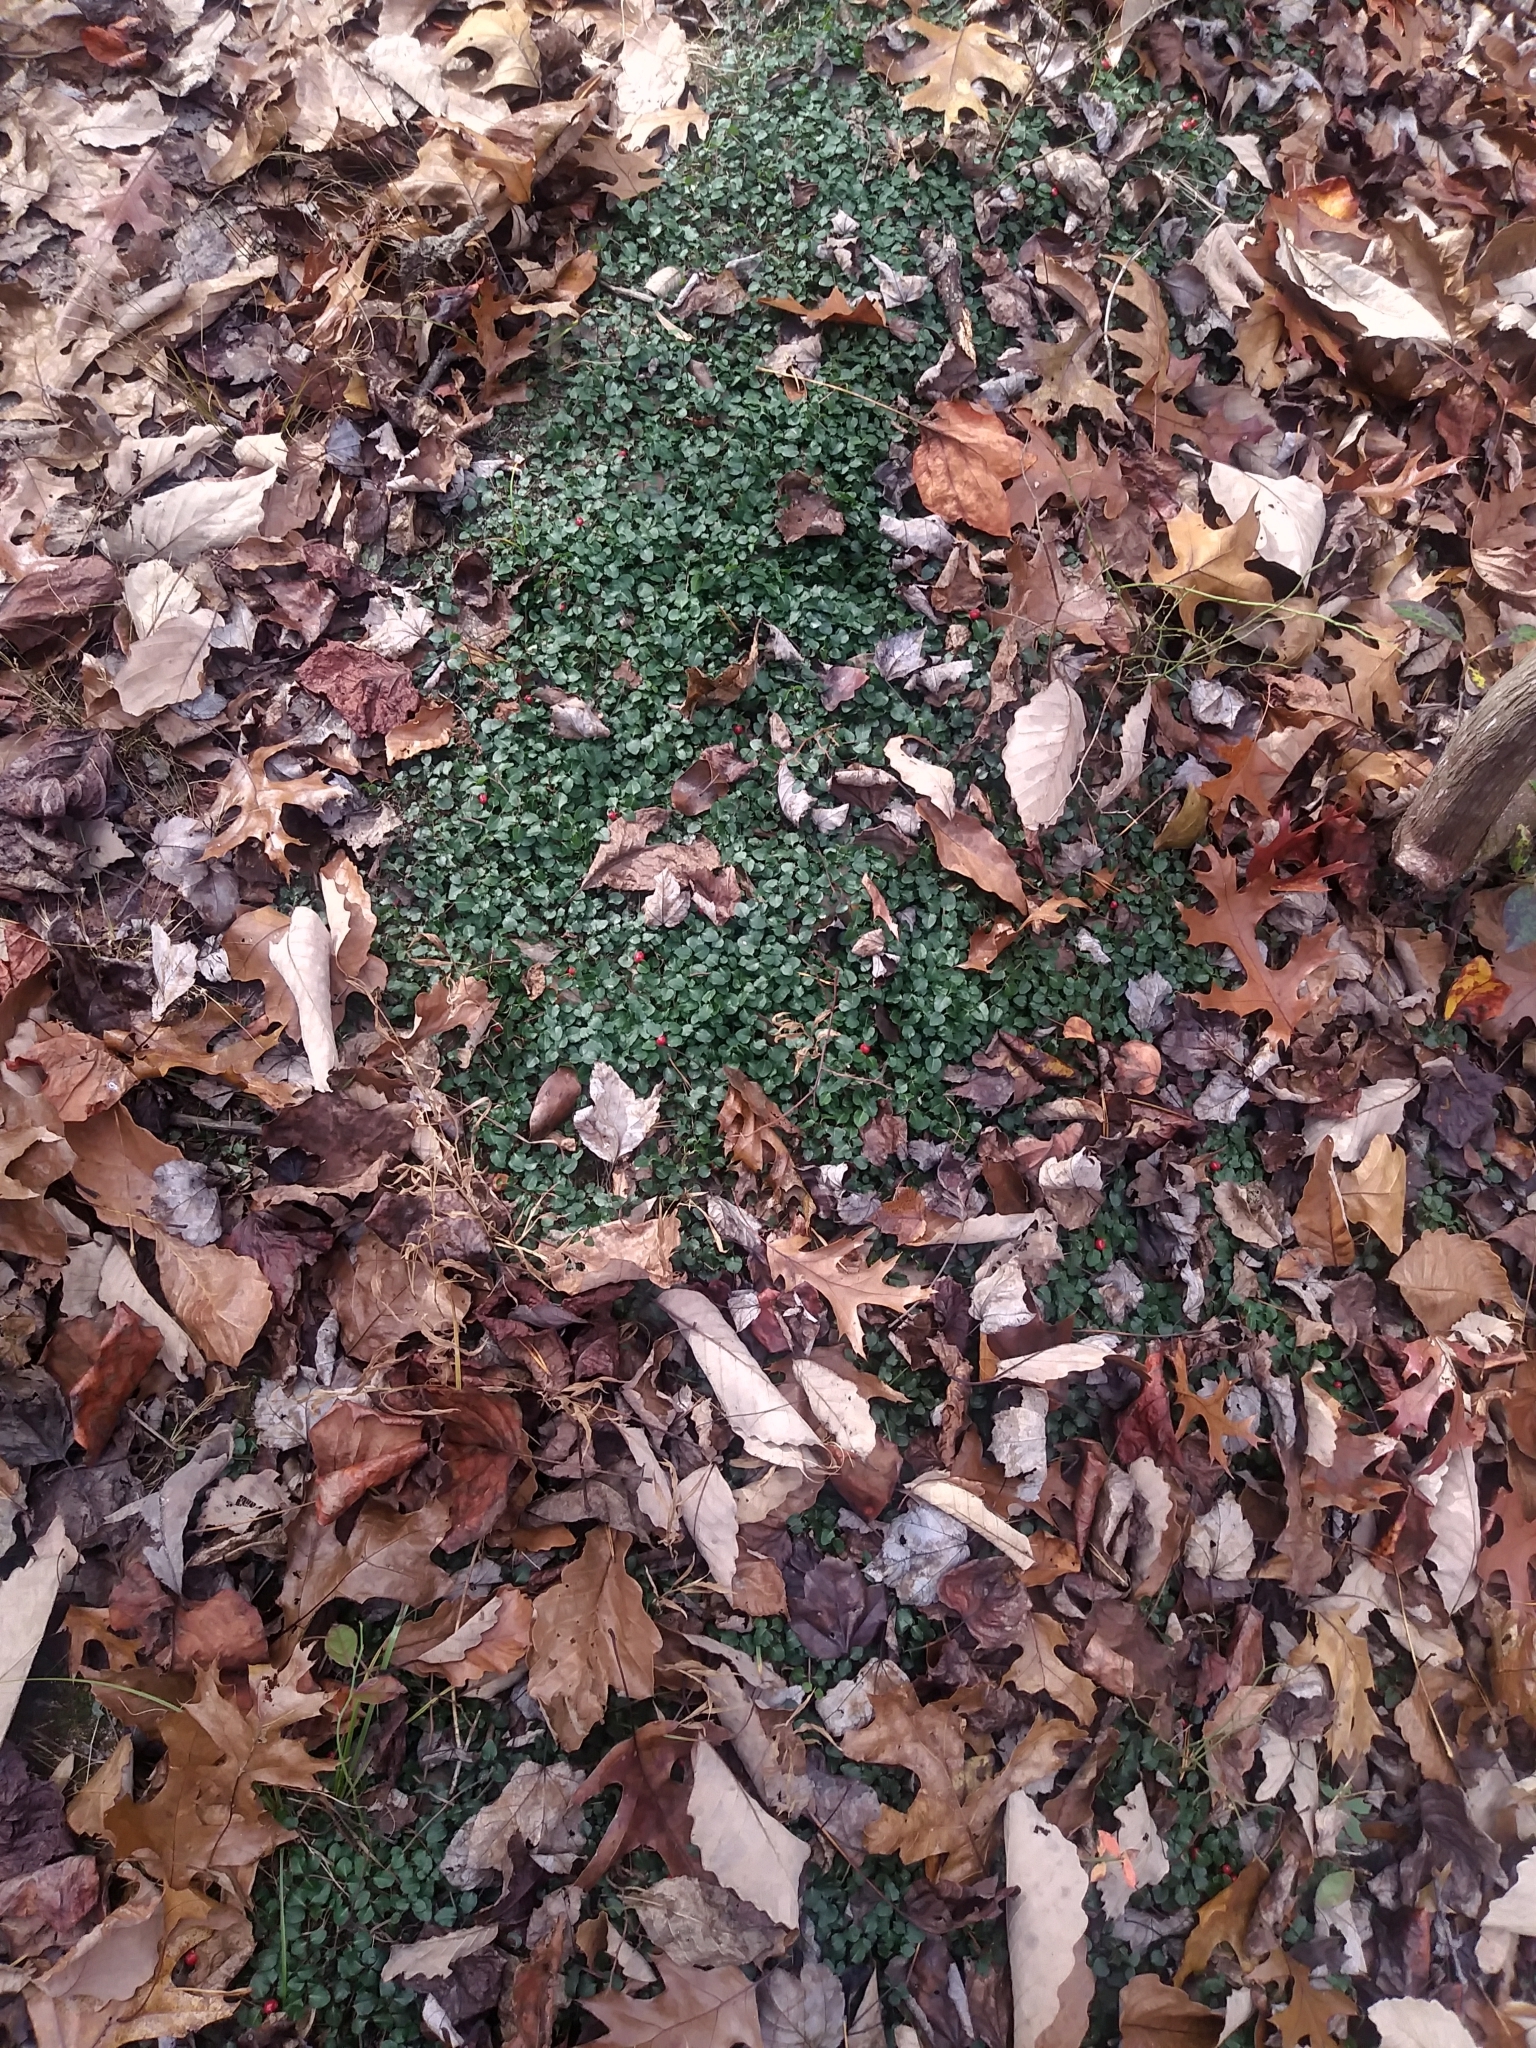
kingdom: Plantae
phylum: Tracheophyta
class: Magnoliopsida
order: Gentianales
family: Rubiaceae
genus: Mitchella
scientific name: Mitchella repens
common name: Partridge-berry
